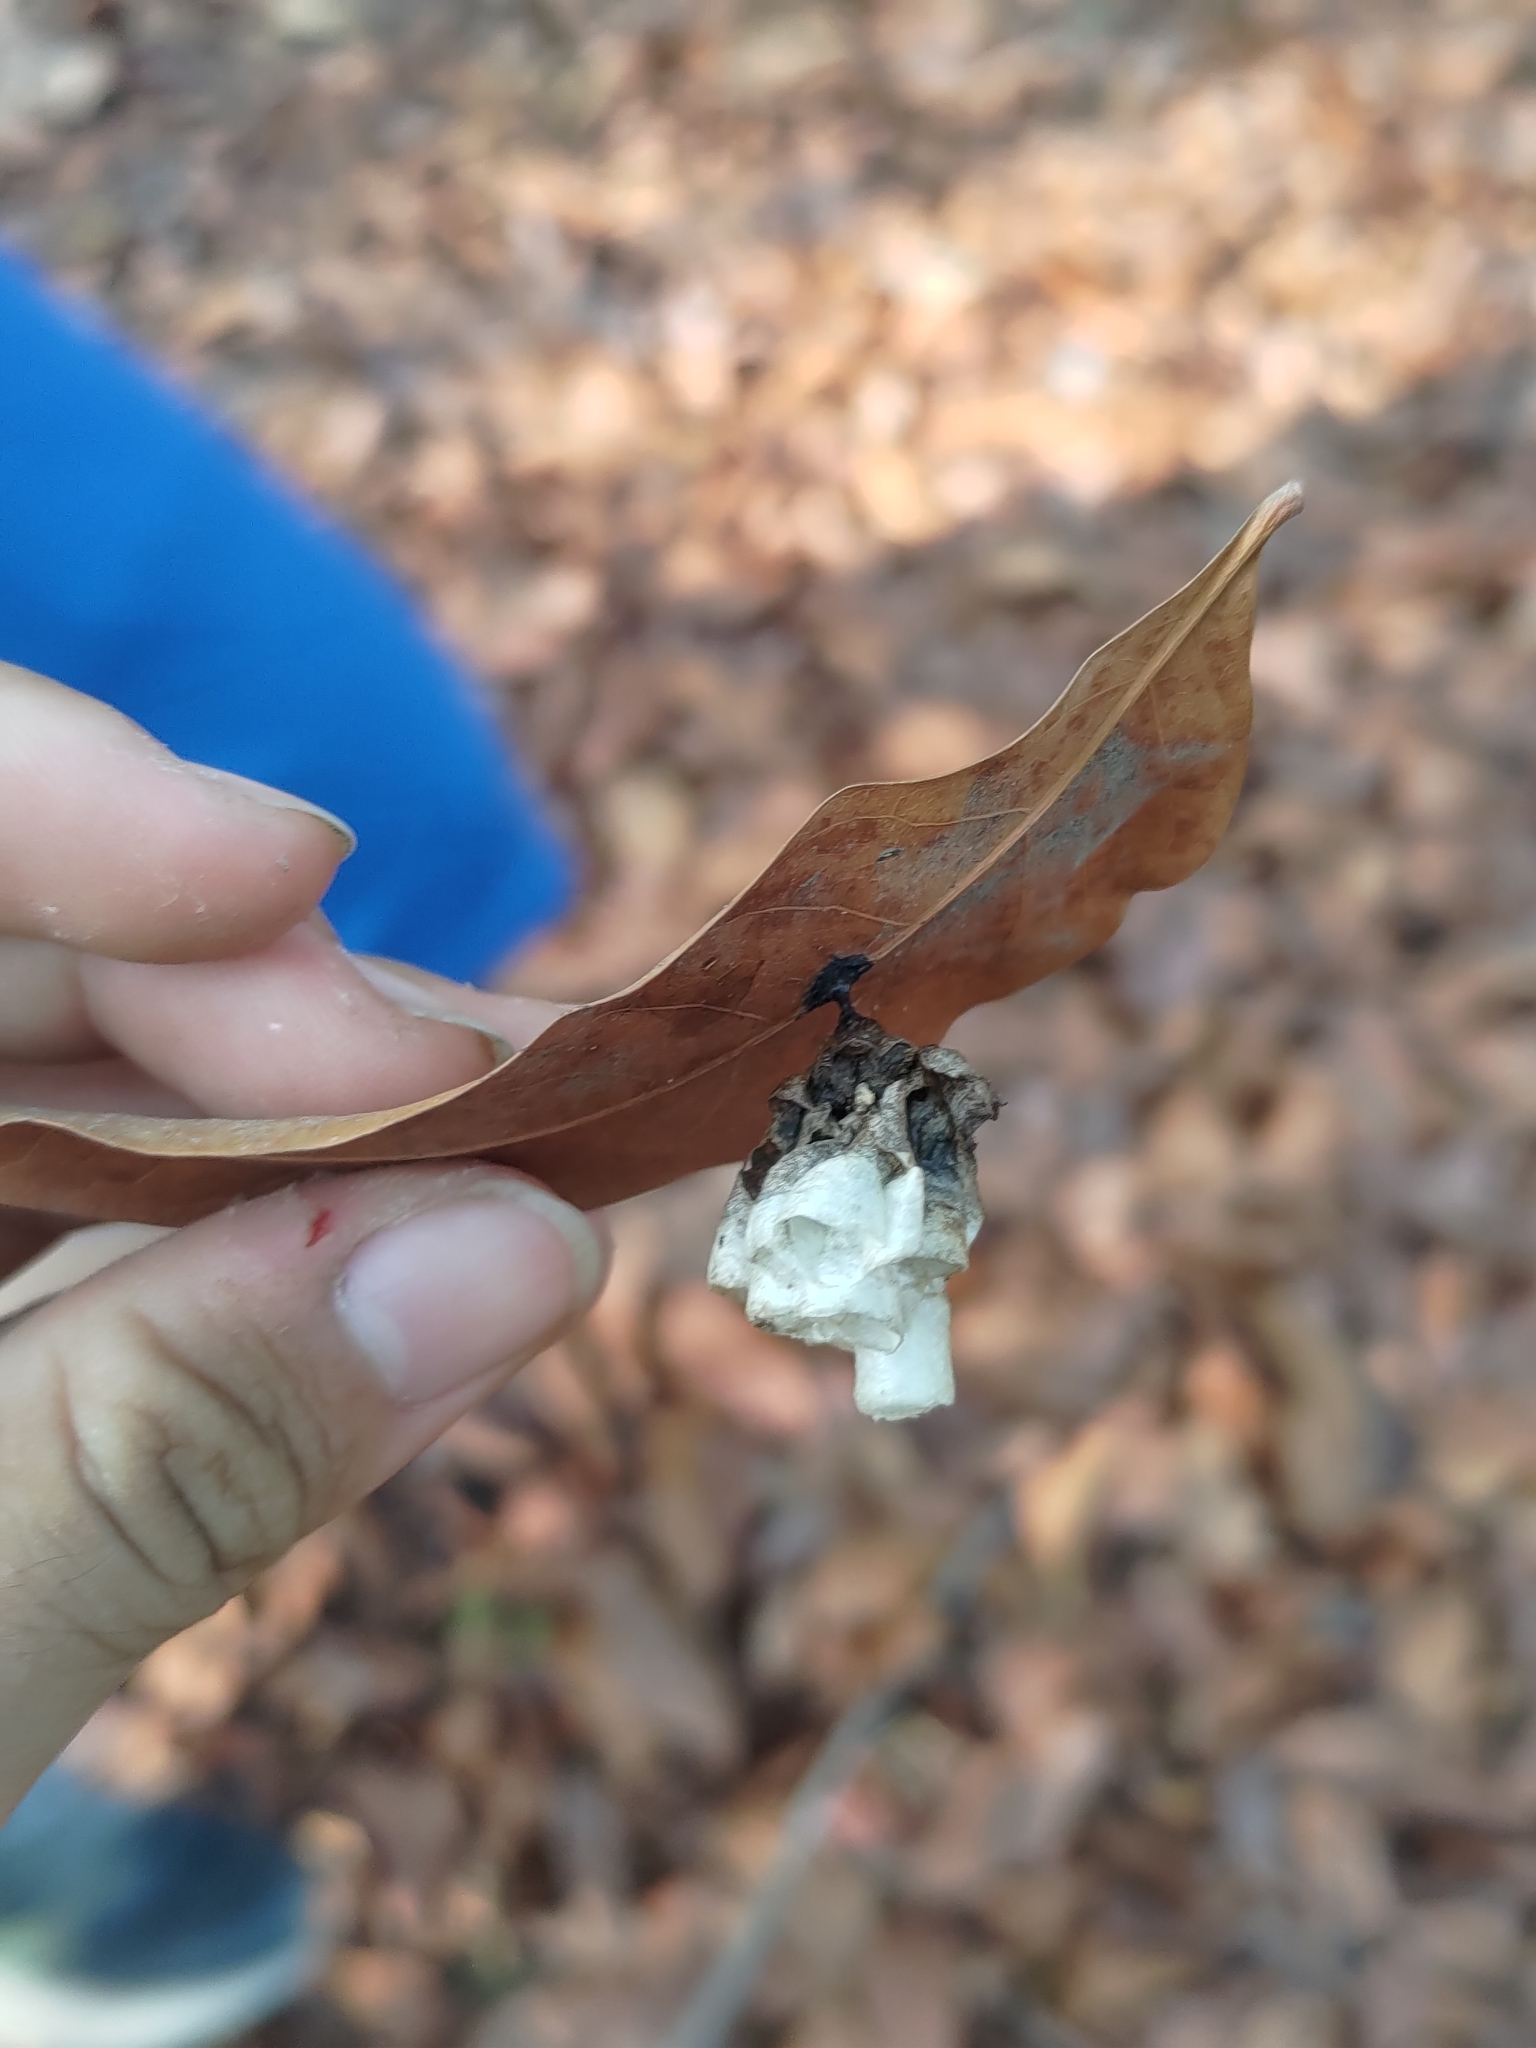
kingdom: Animalia
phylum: Arthropoda
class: Insecta
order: Hymenoptera
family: Vespidae
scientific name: Vespidae
